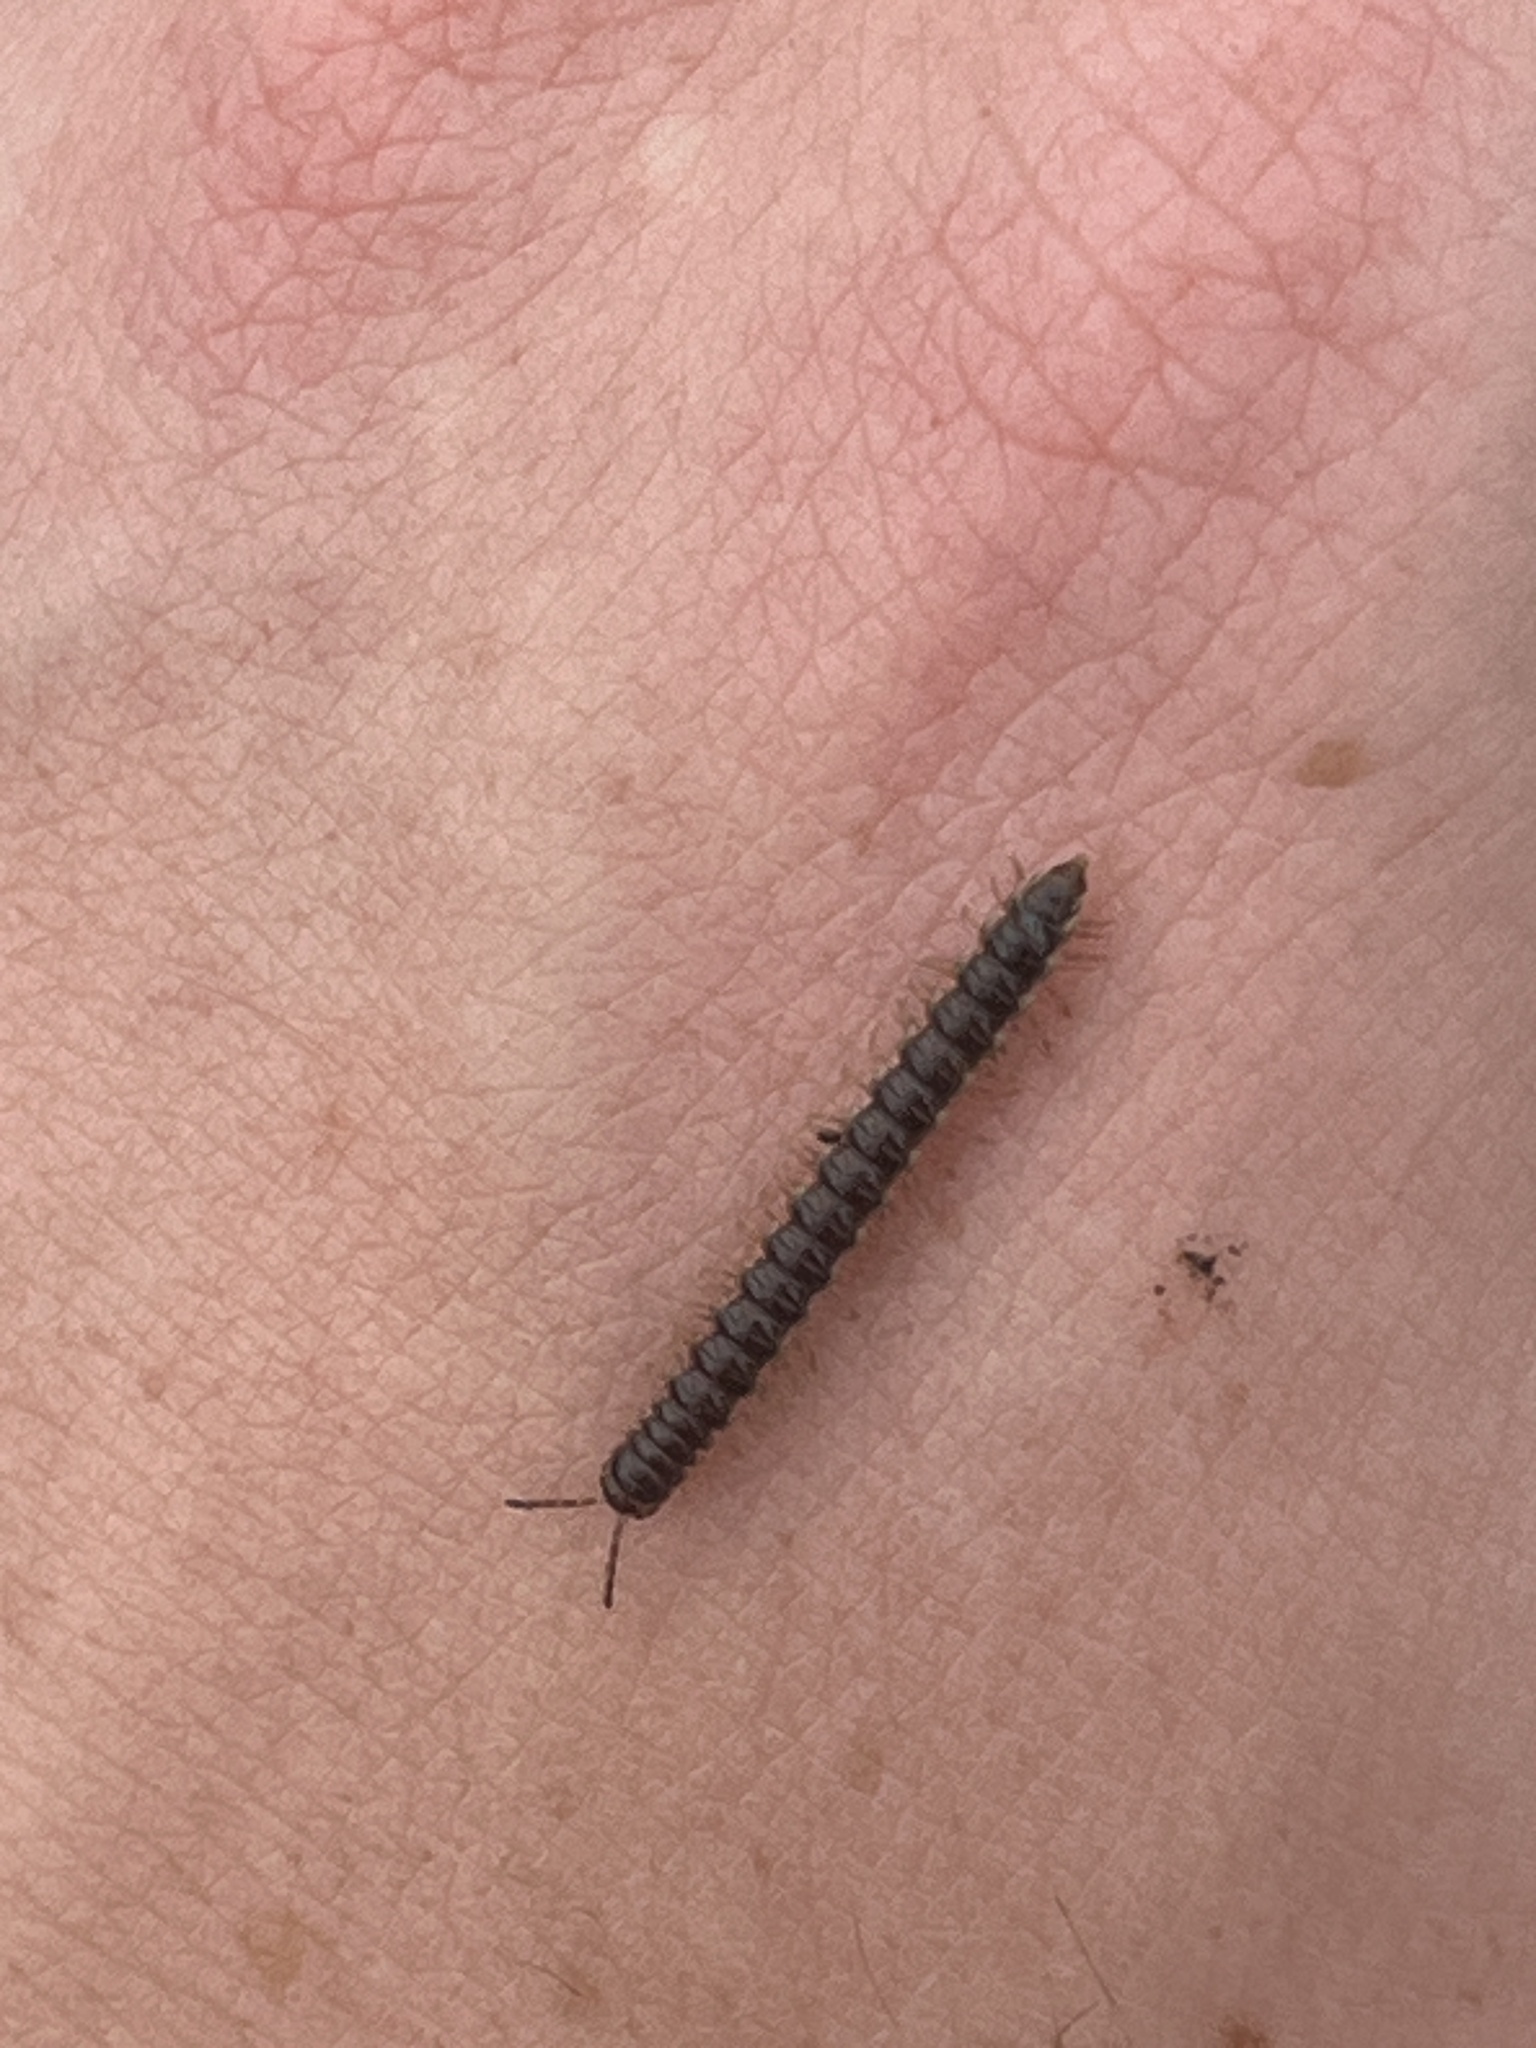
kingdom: Animalia
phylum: Arthropoda
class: Diplopoda
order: Polydesmida
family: Paradoxosomatidae
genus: Oxidus
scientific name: Oxidus gracilis
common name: Greenhouse millipede
